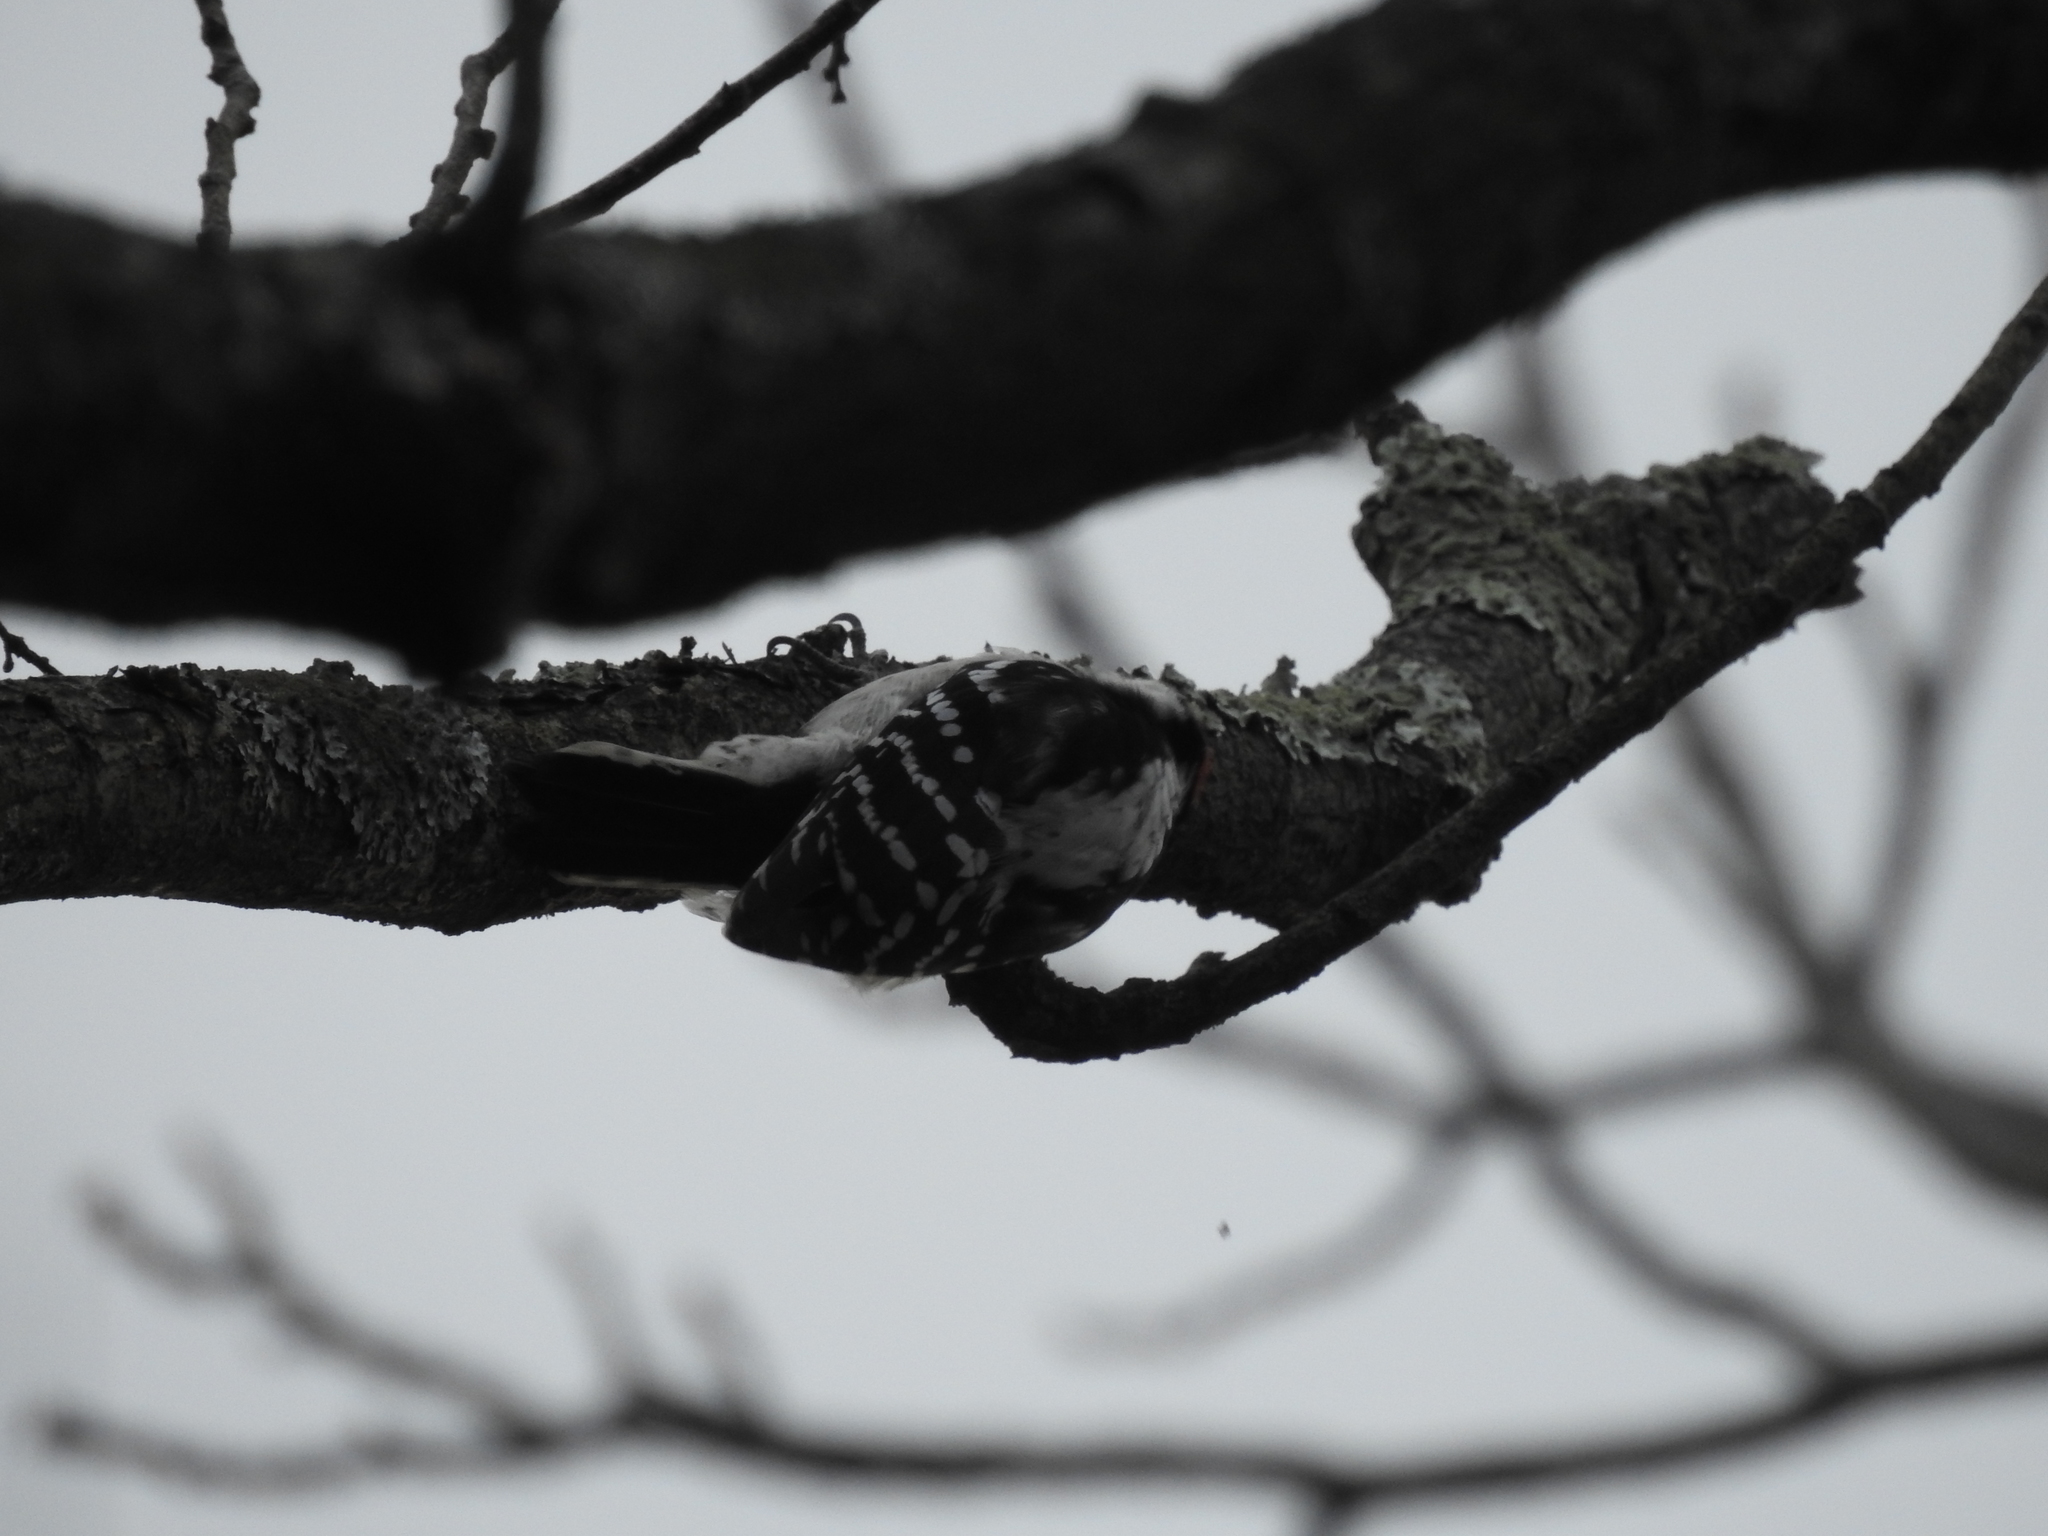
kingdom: Animalia
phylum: Chordata
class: Aves
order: Piciformes
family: Picidae
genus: Dryobates
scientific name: Dryobates pubescens
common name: Downy woodpecker
